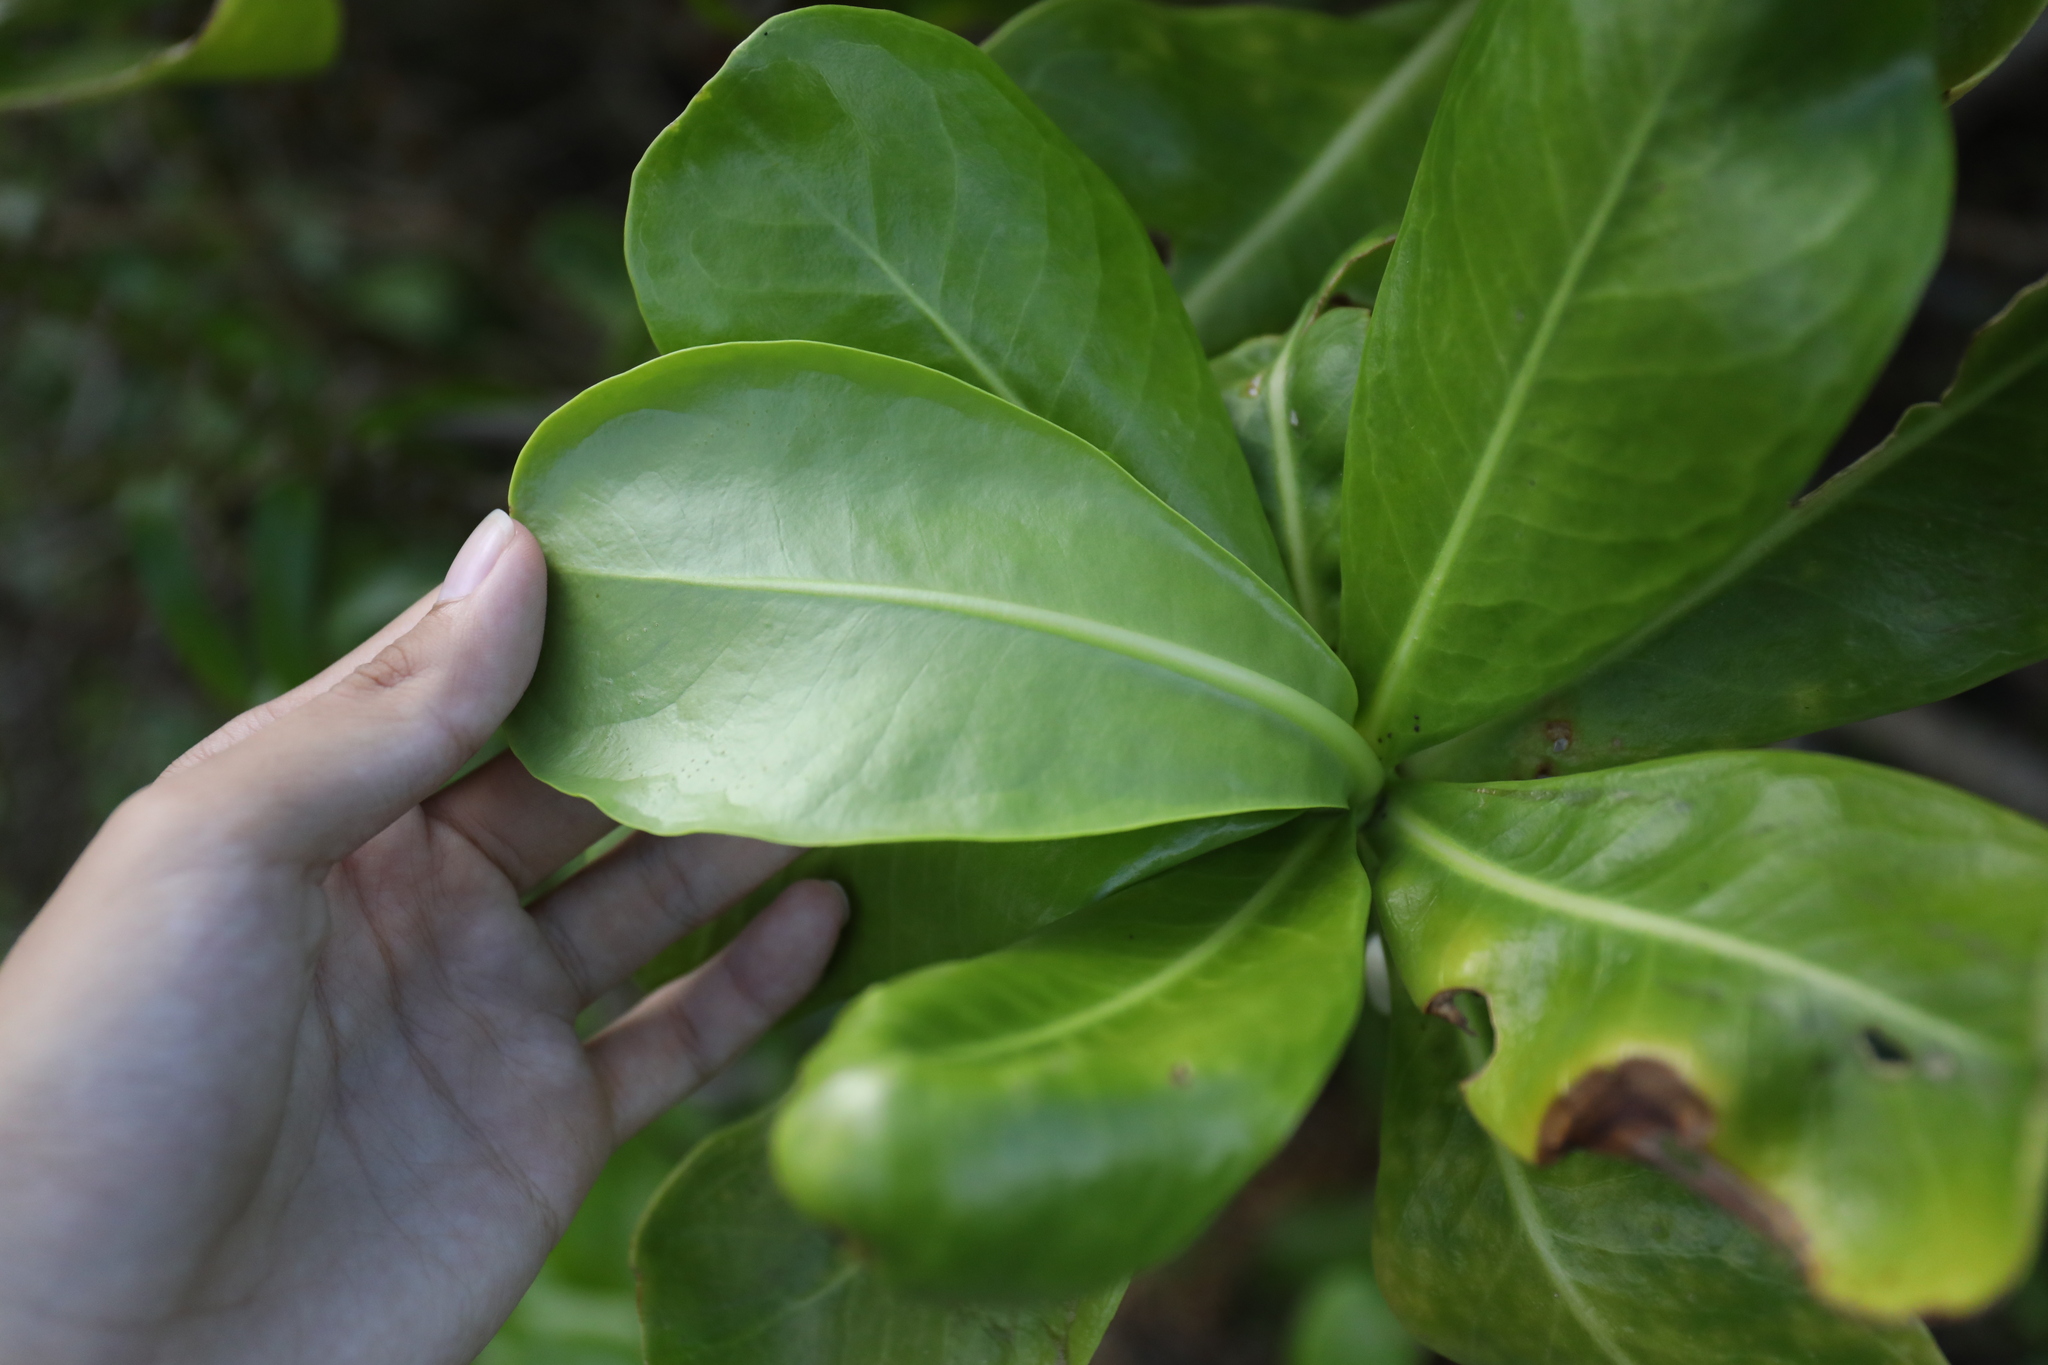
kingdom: Plantae
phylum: Tracheophyta
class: Magnoliopsida
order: Asterales
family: Goodeniaceae
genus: Scaevola
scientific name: Scaevola taccada
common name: Sea lettucetree
